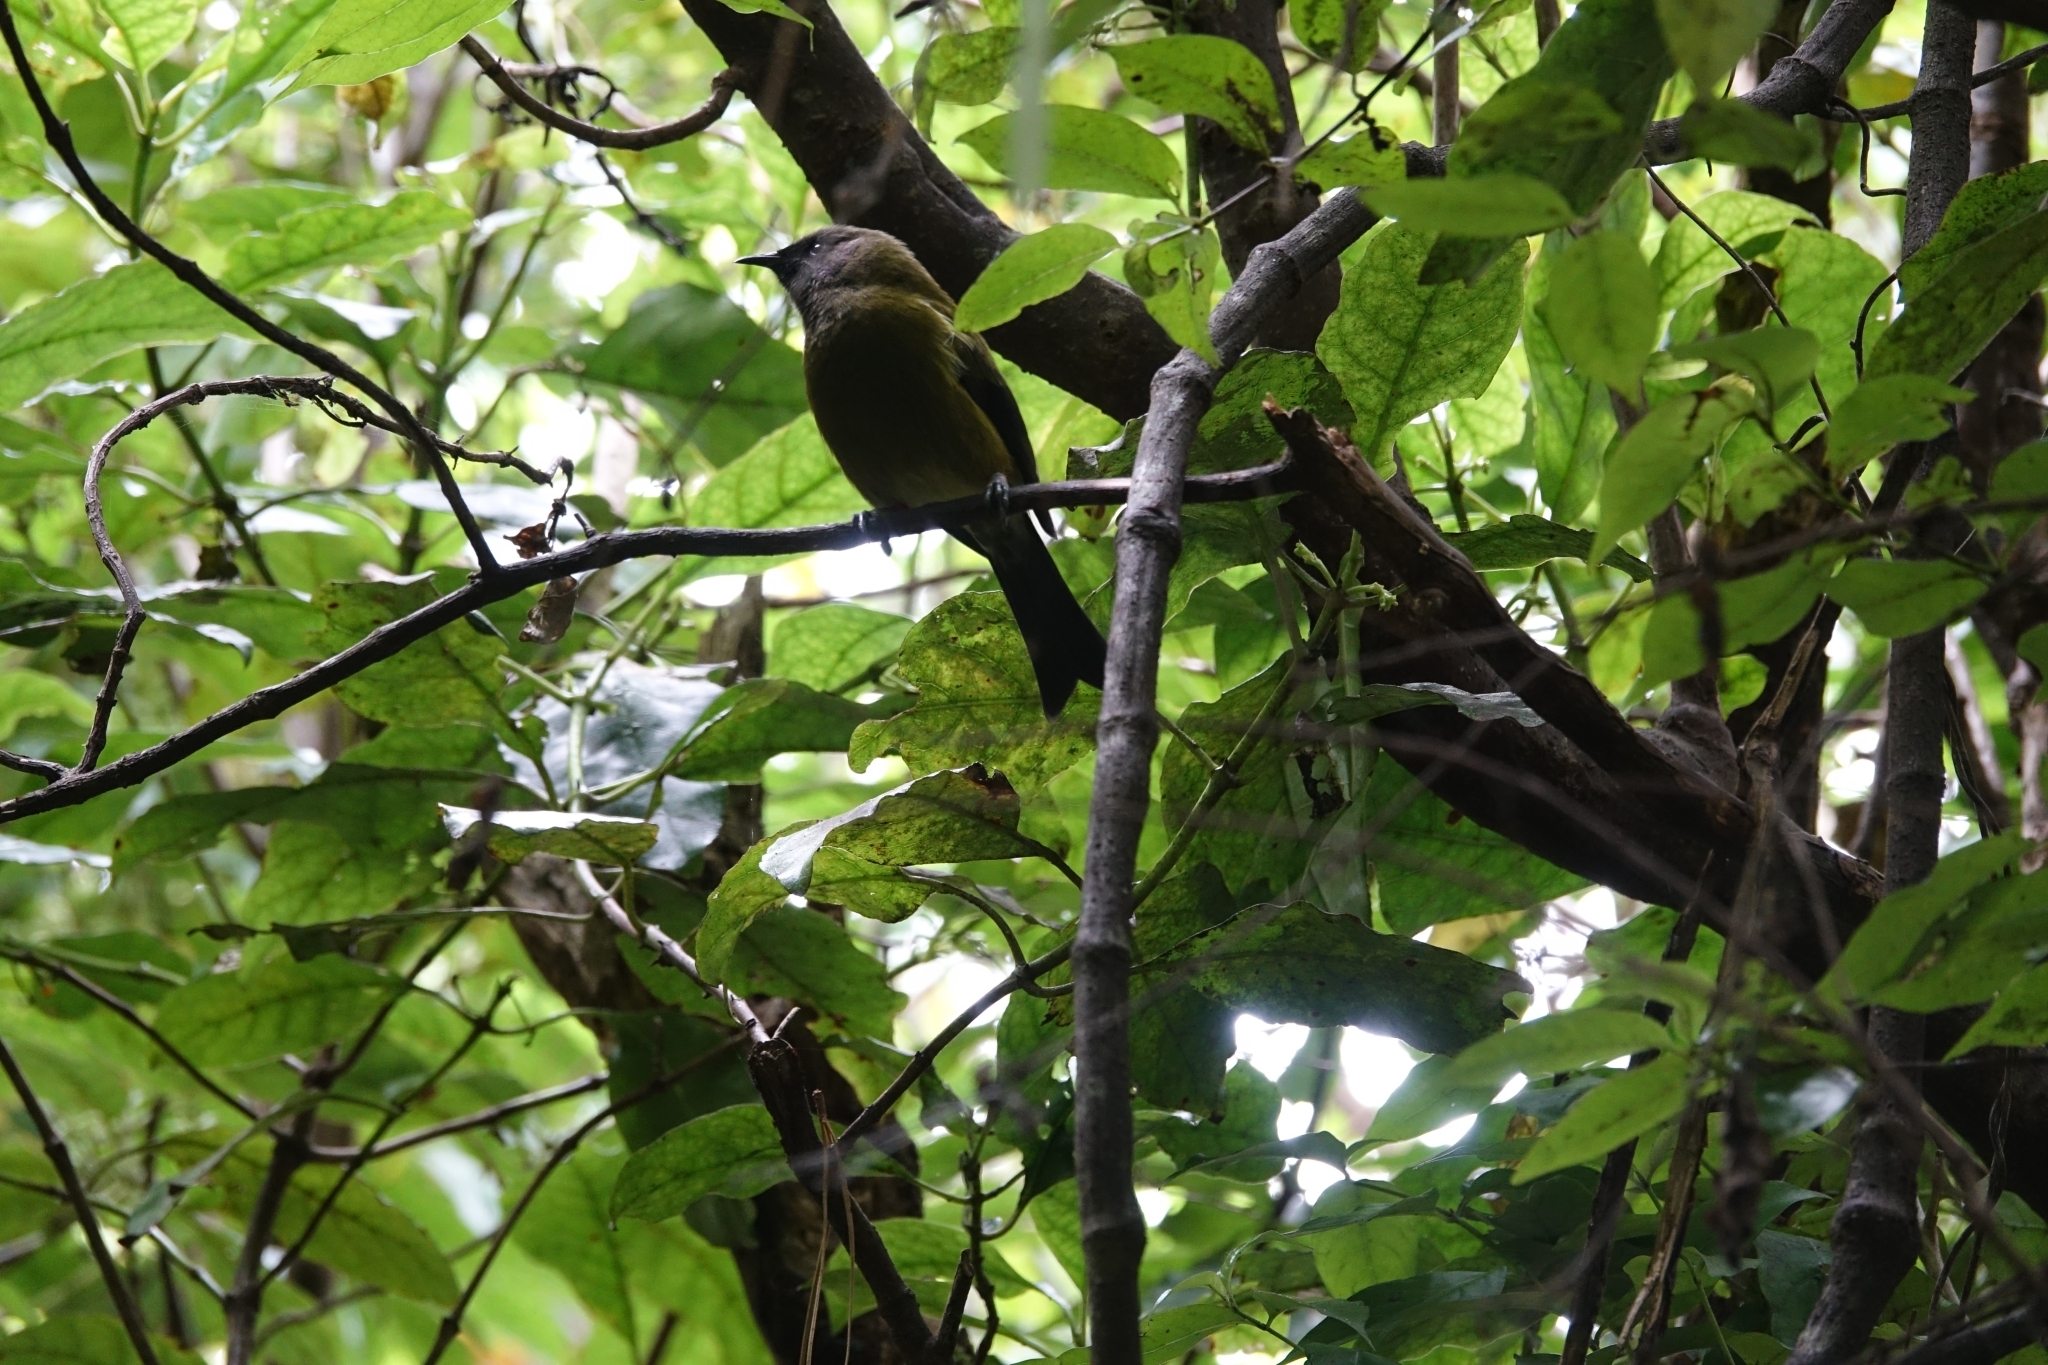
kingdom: Animalia
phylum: Chordata
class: Aves
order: Passeriformes
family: Meliphagidae
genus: Anthornis
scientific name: Anthornis melanura
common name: New zealand bellbird
